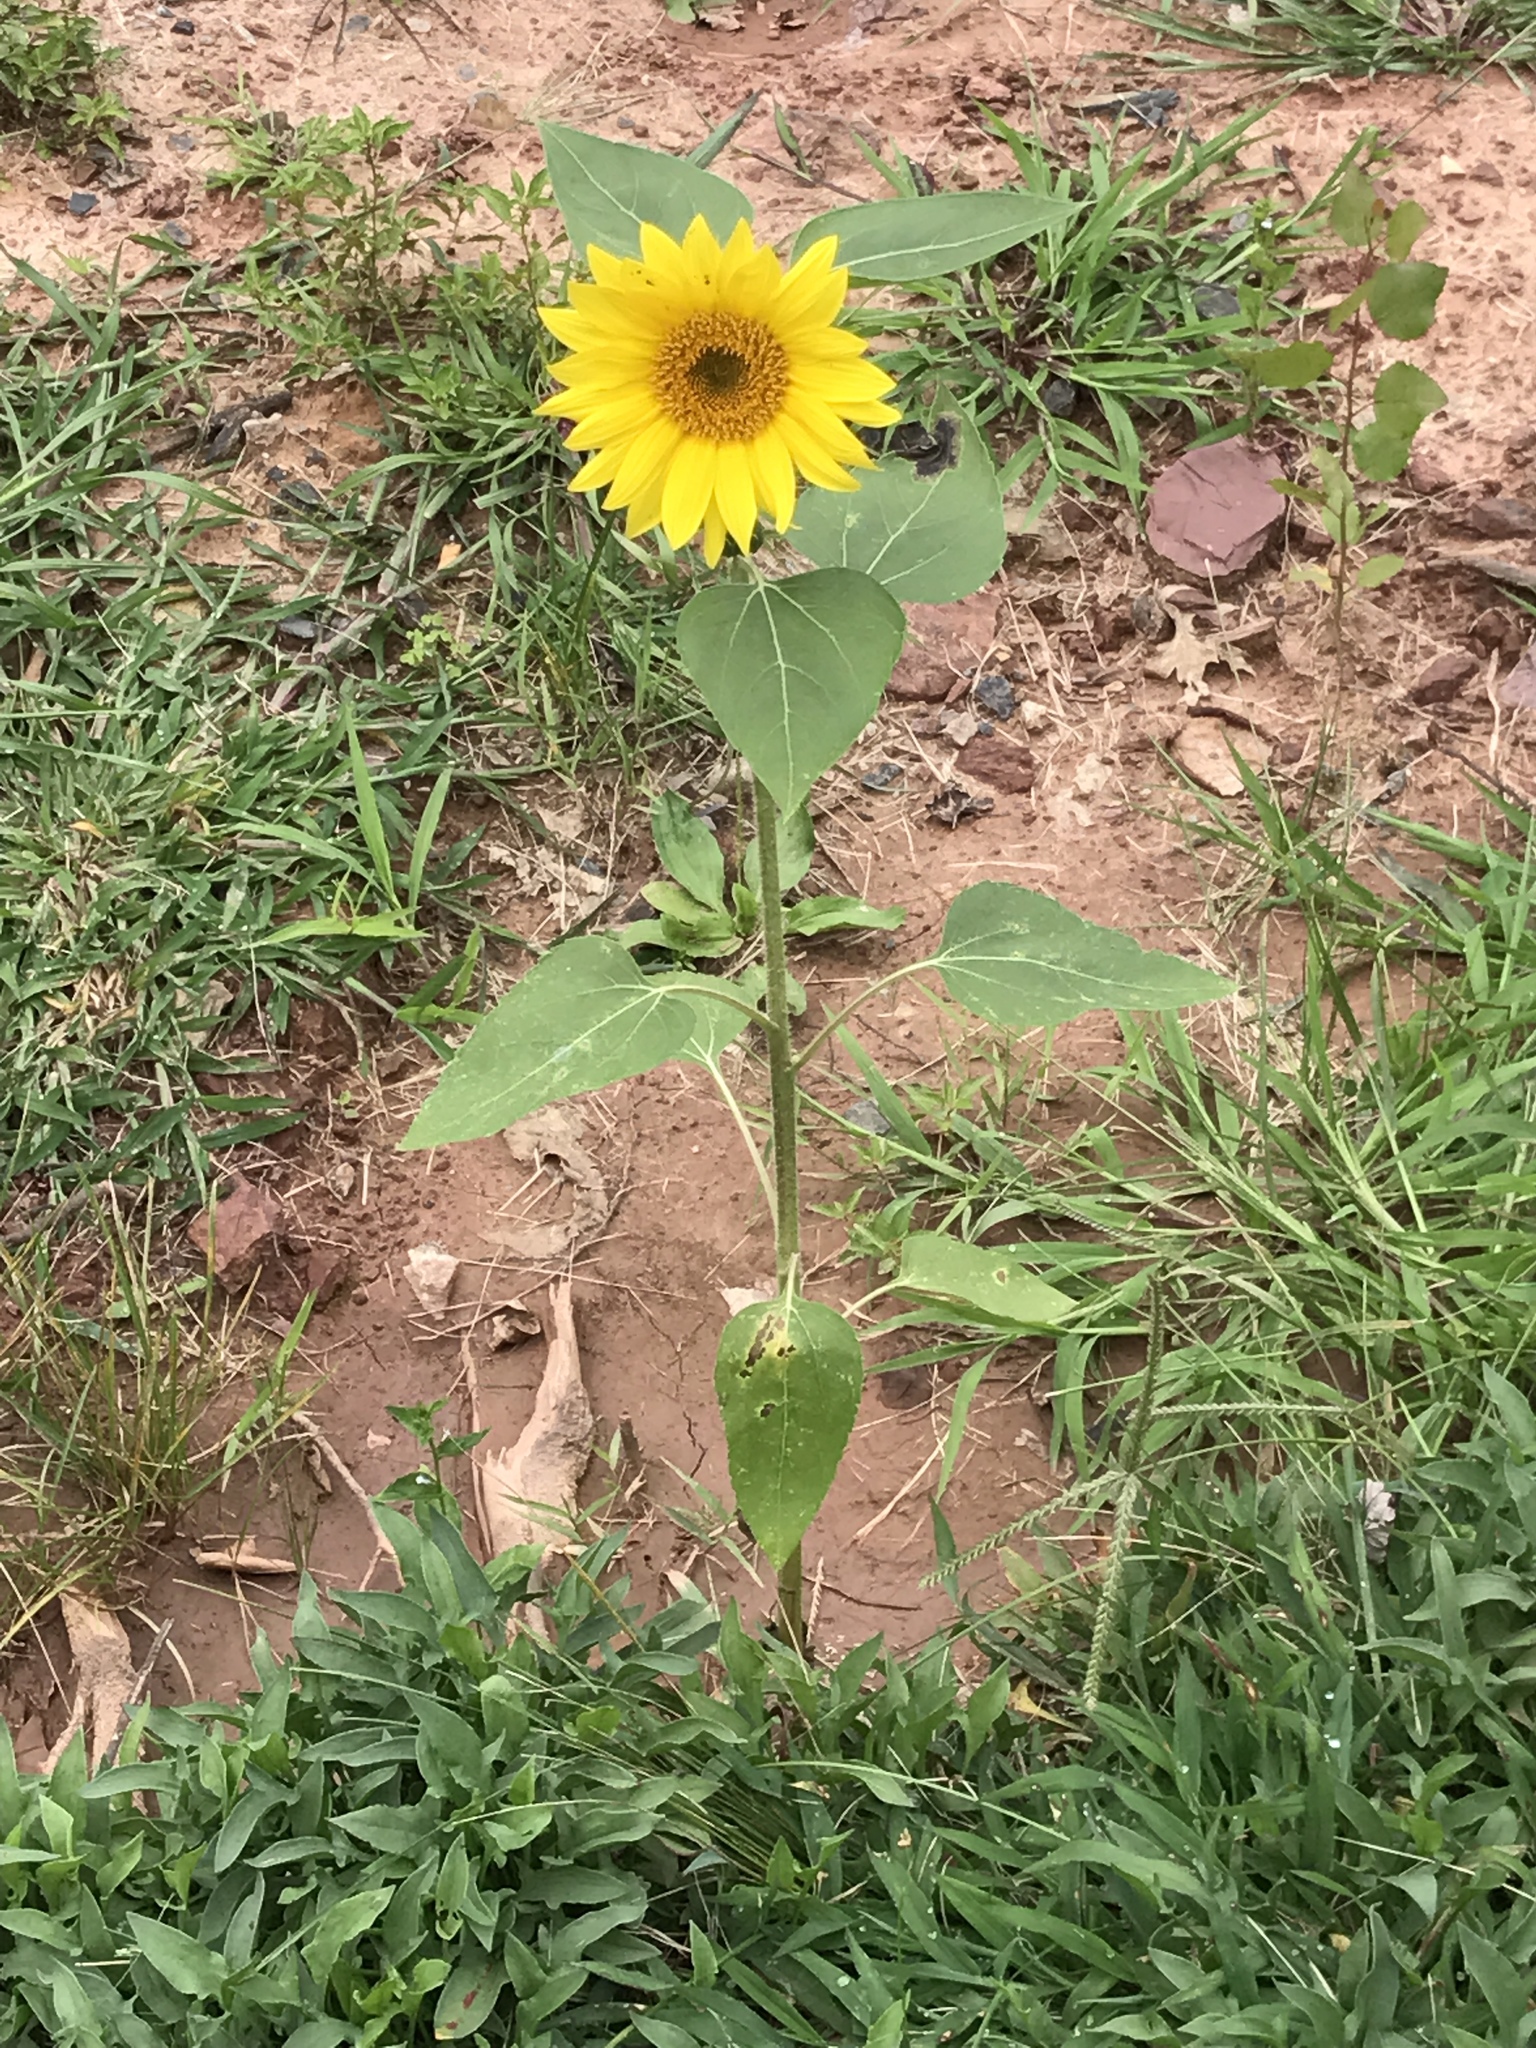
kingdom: Plantae
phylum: Tracheophyta
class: Magnoliopsida
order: Asterales
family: Asteraceae
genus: Helianthus
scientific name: Helianthus annuus
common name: Sunflower
